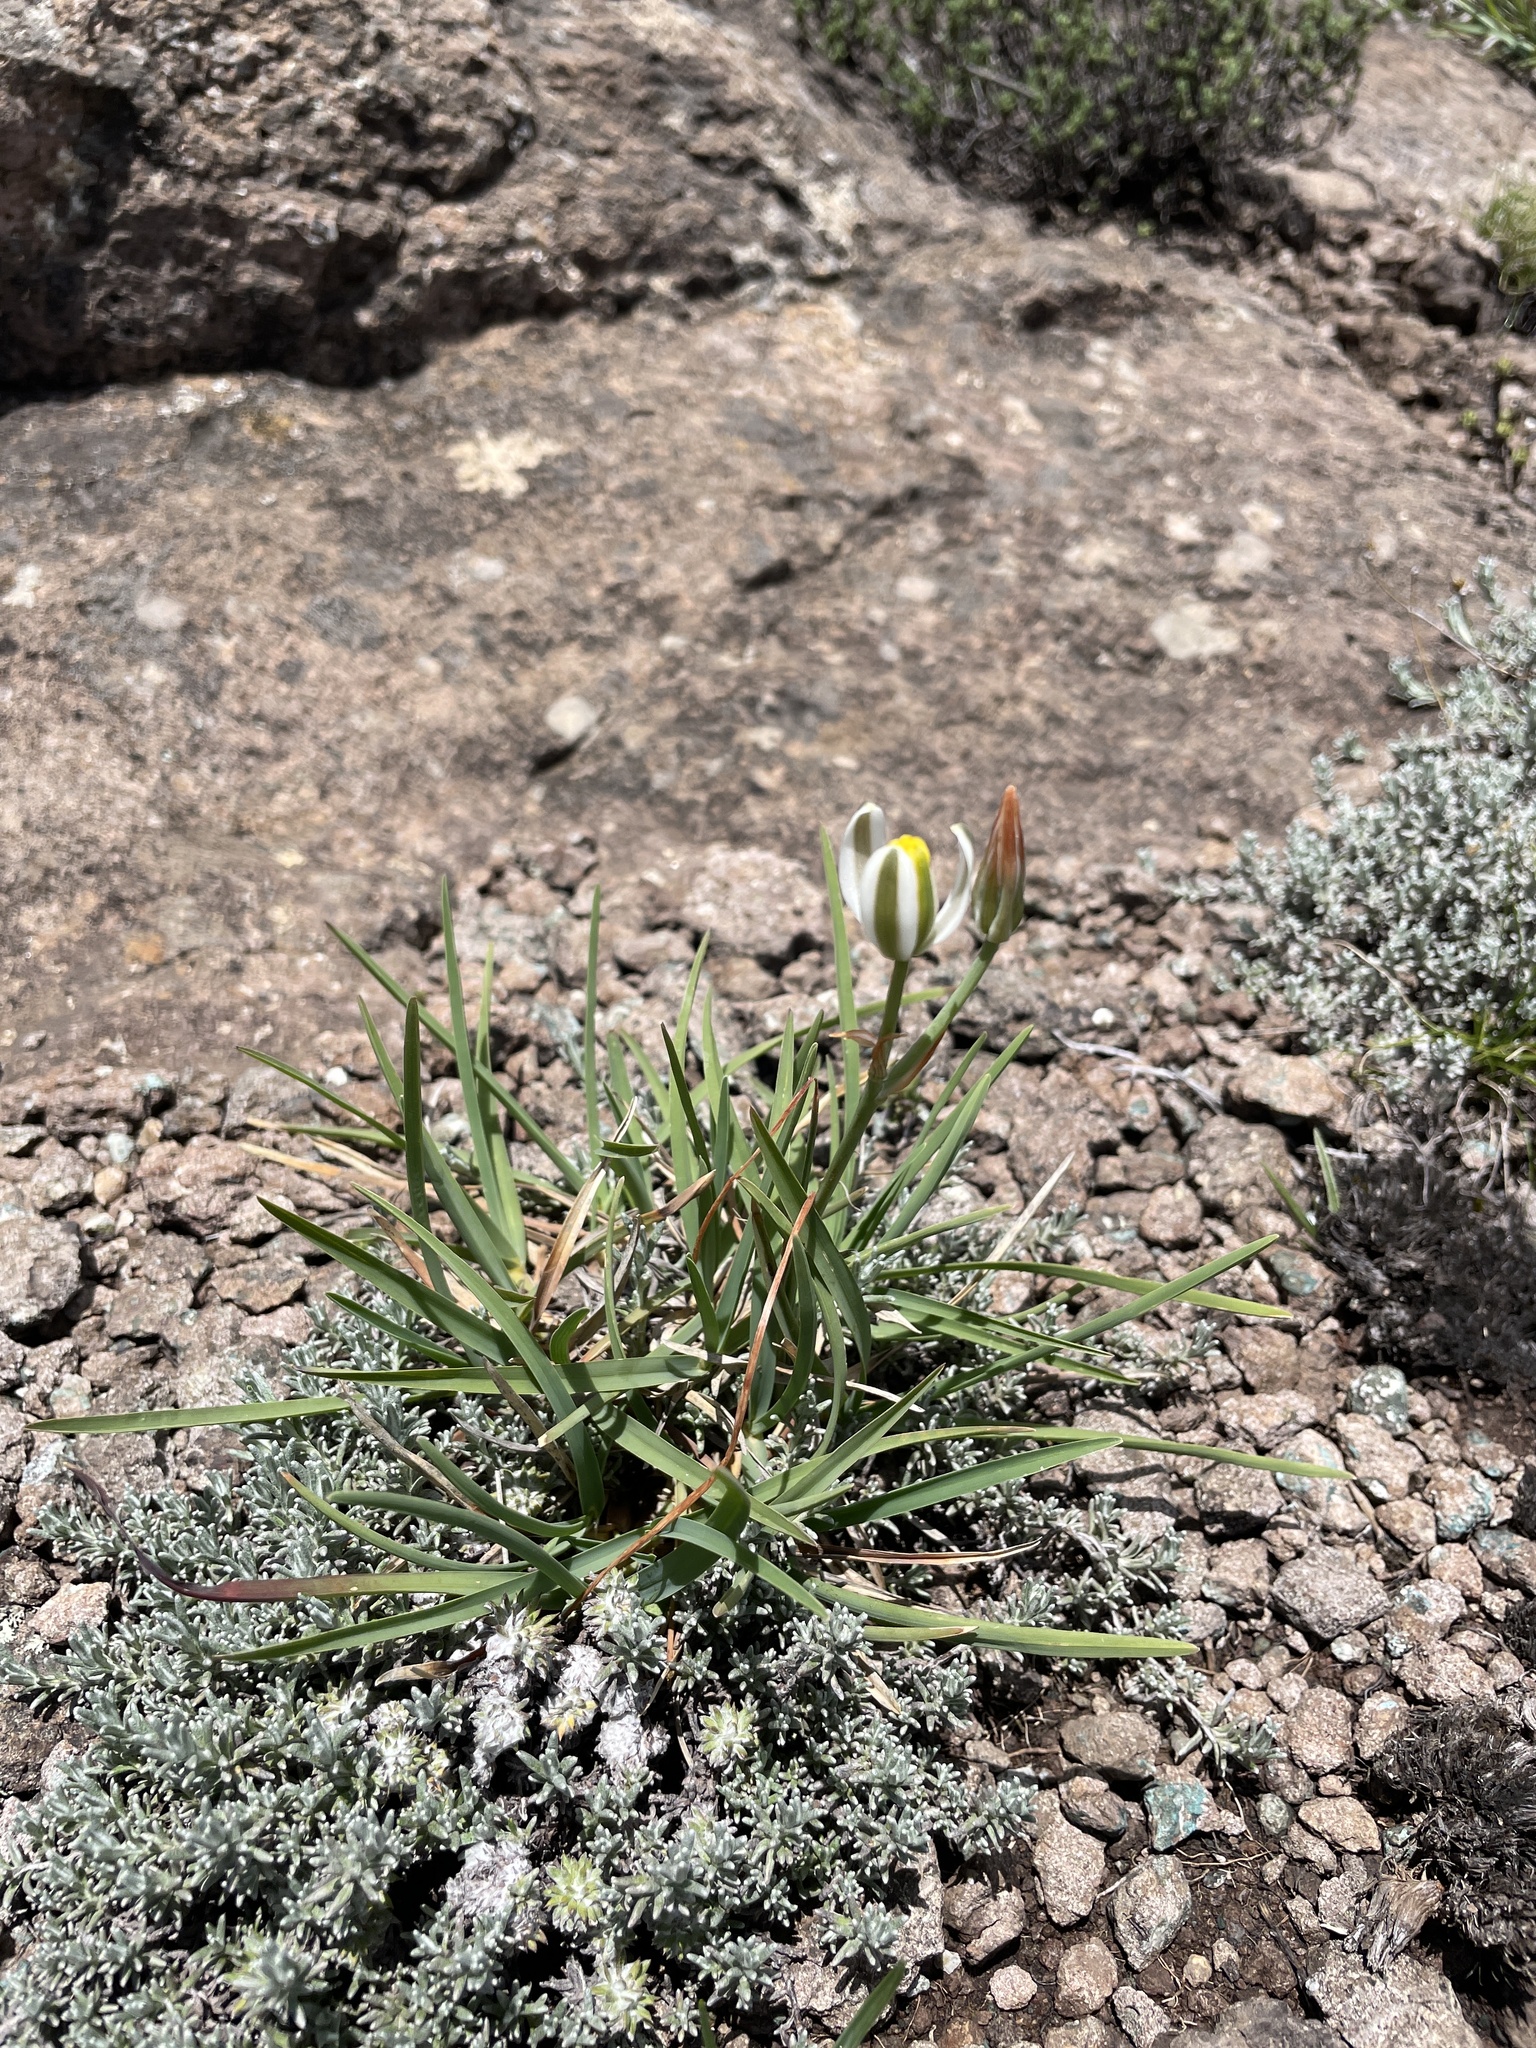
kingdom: Plantae
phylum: Tracheophyta
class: Liliopsida
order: Asparagales
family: Asparagaceae
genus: Albuca
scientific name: Albuca humilis
